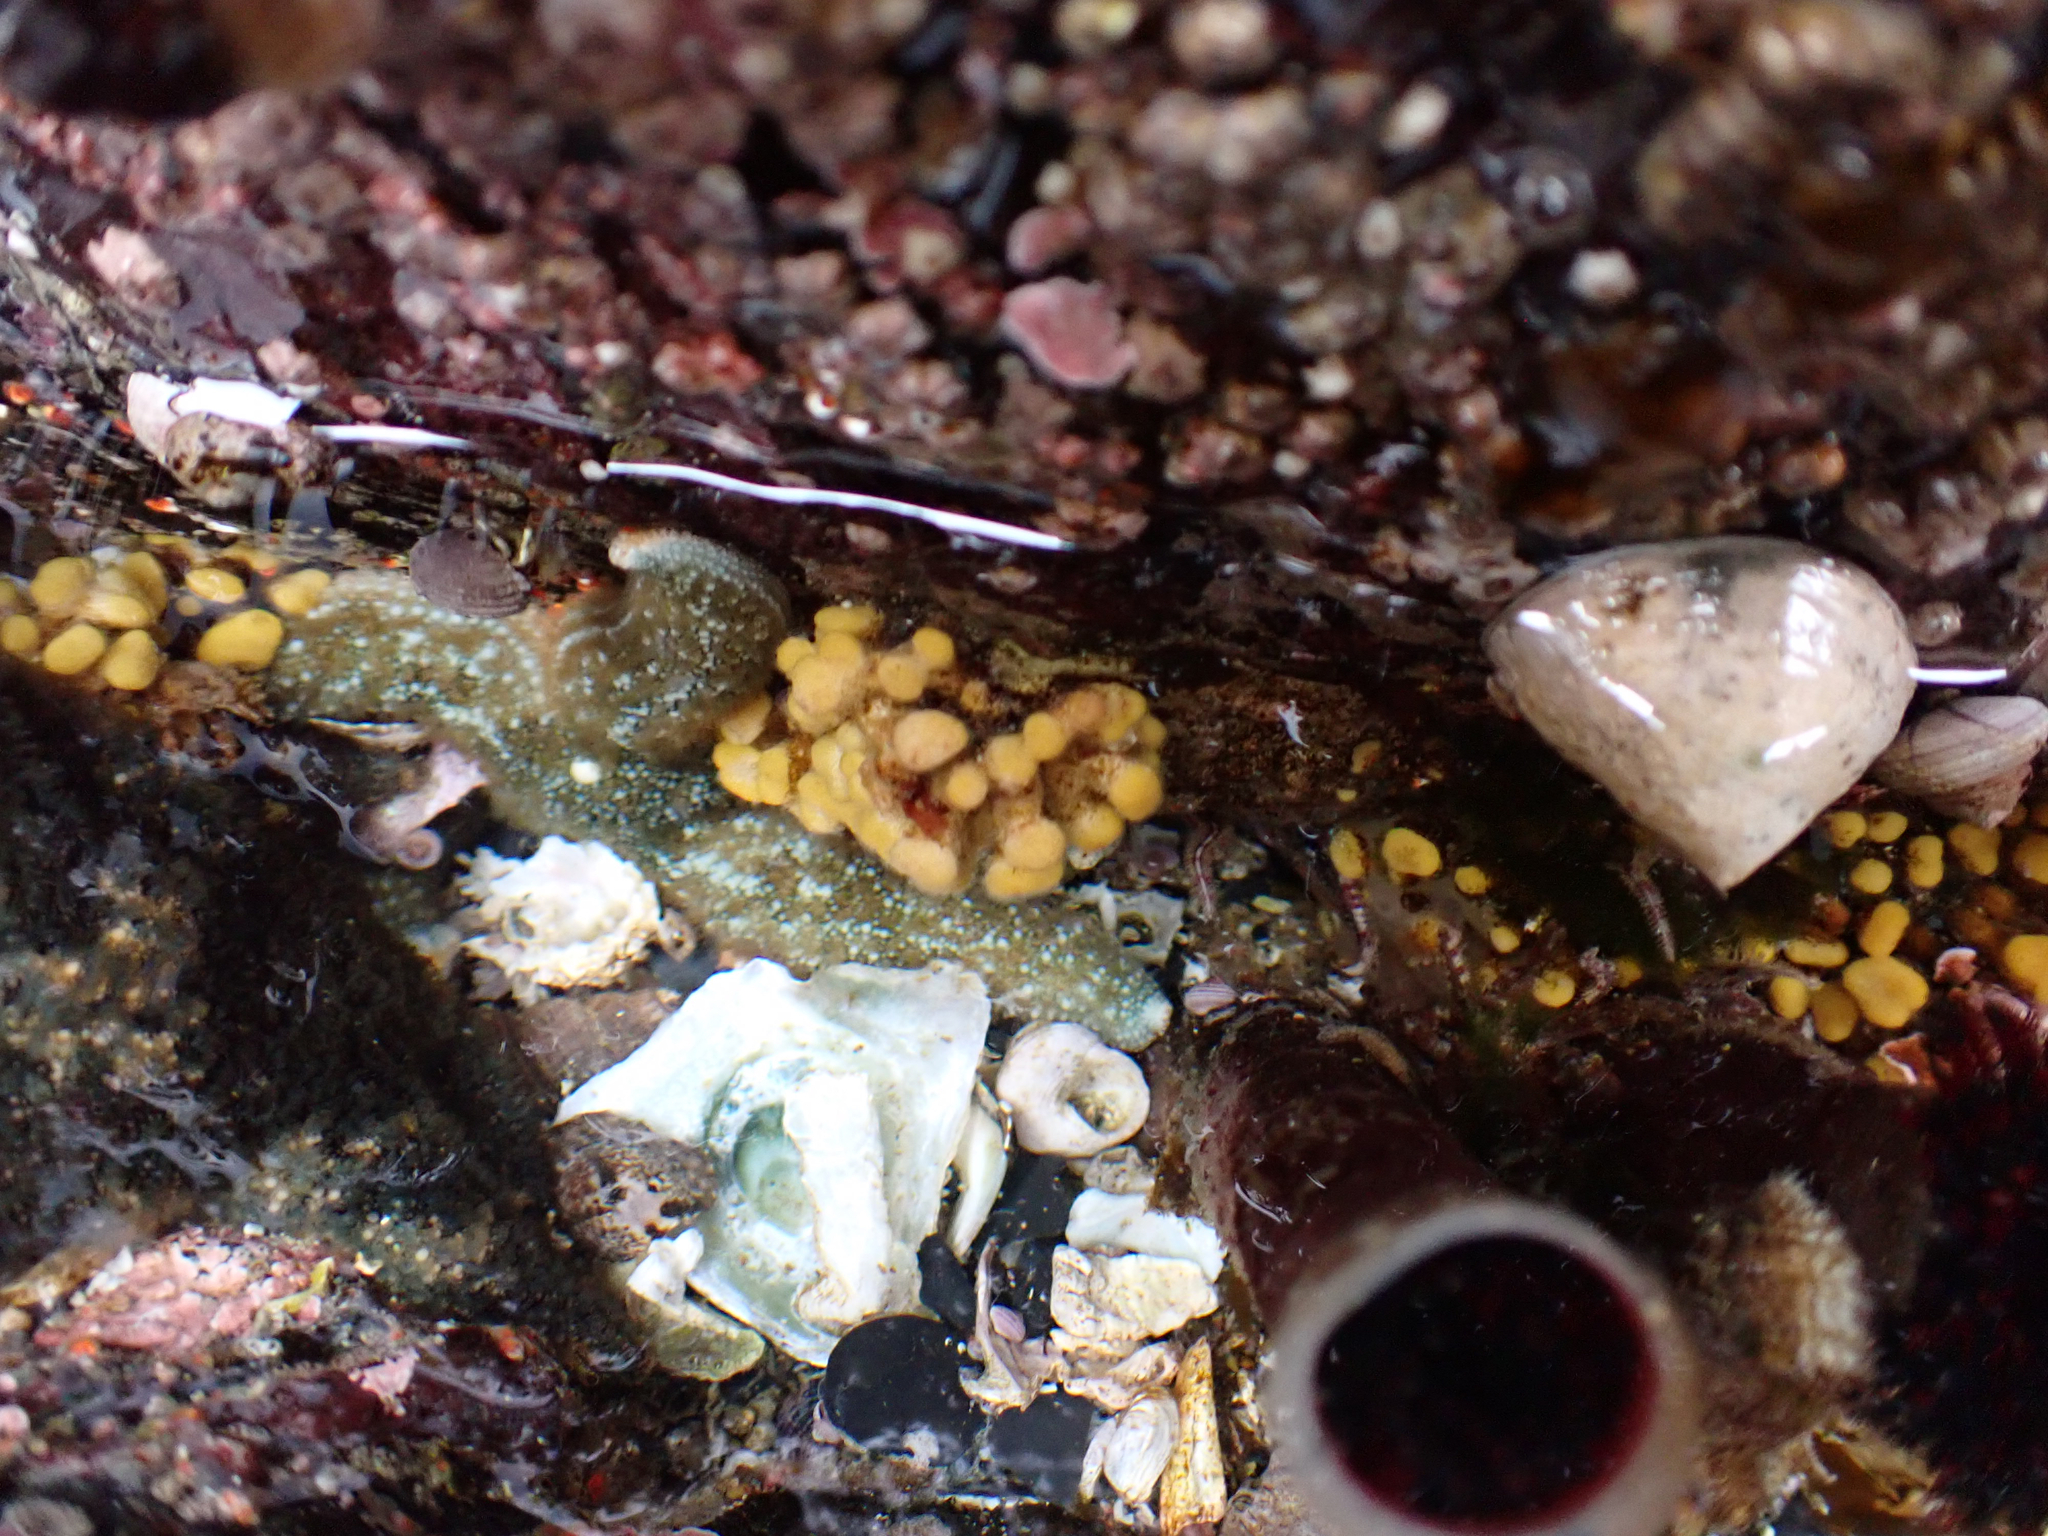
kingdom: Animalia
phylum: Bryozoa
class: Stenolaemata
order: Cyclostomatida
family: Heteroporidae
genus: Heteropora
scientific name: Heteropora pacifica
